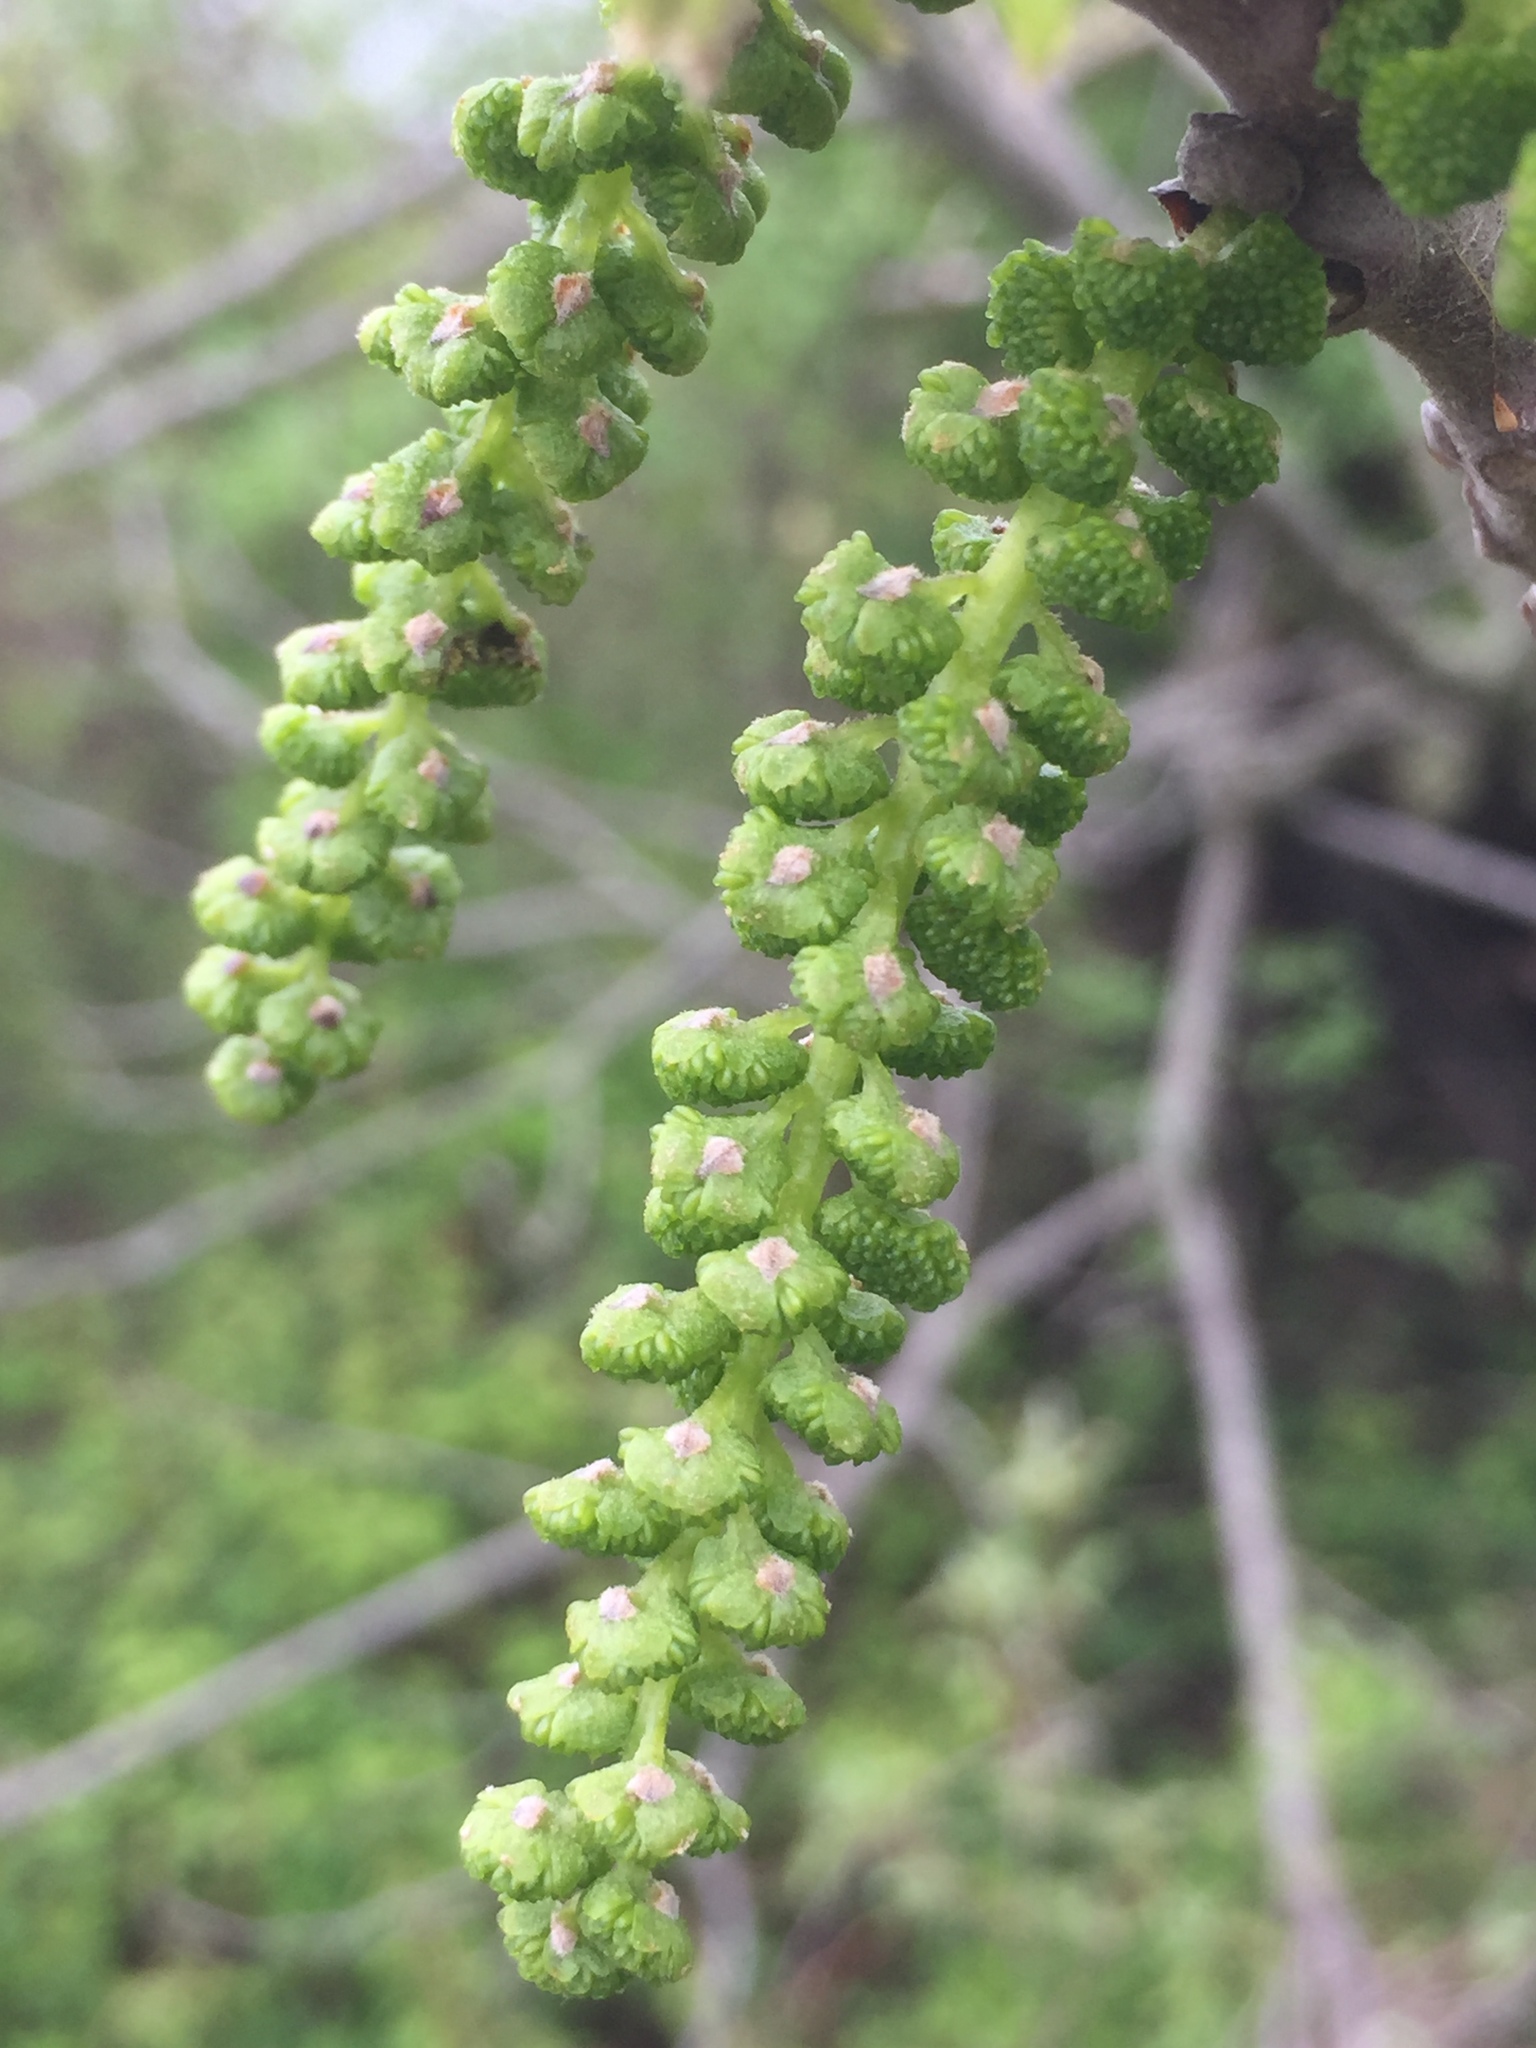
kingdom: Plantae
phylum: Tracheophyta
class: Magnoliopsida
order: Fagales
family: Juglandaceae
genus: Juglans
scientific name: Juglans nigra
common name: Black walnut
